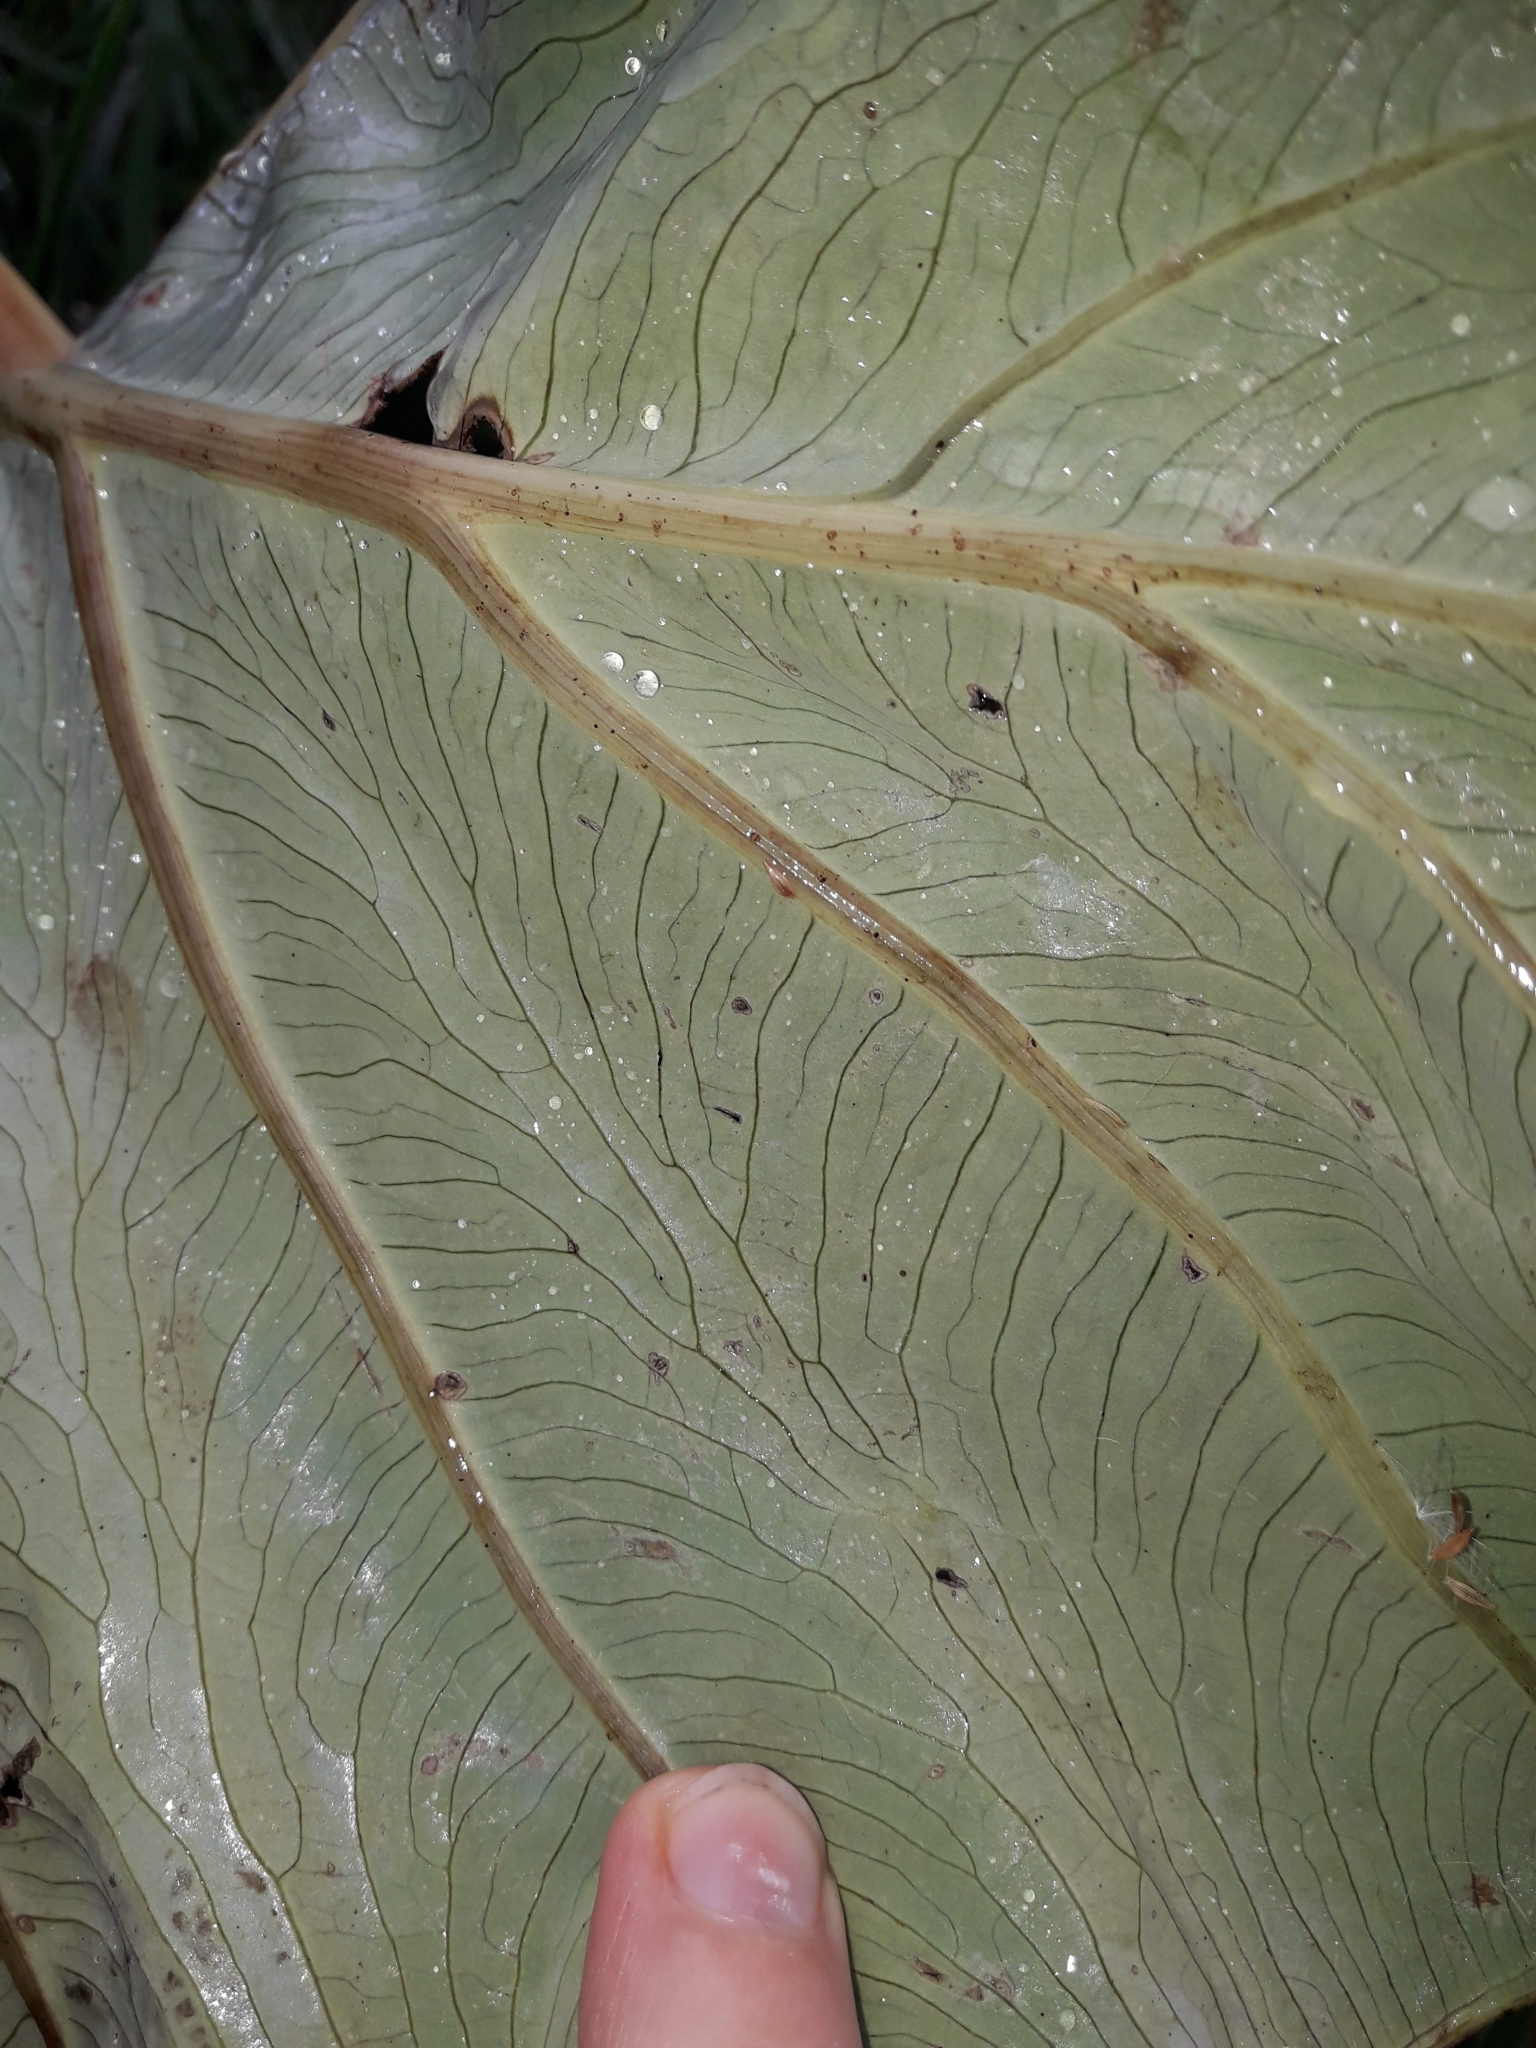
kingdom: Plantae
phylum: Tracheophyta
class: Liliopsida
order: Alismatales
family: Araceae
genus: Colocasia
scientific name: Colocasia esculenta
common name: Taro
